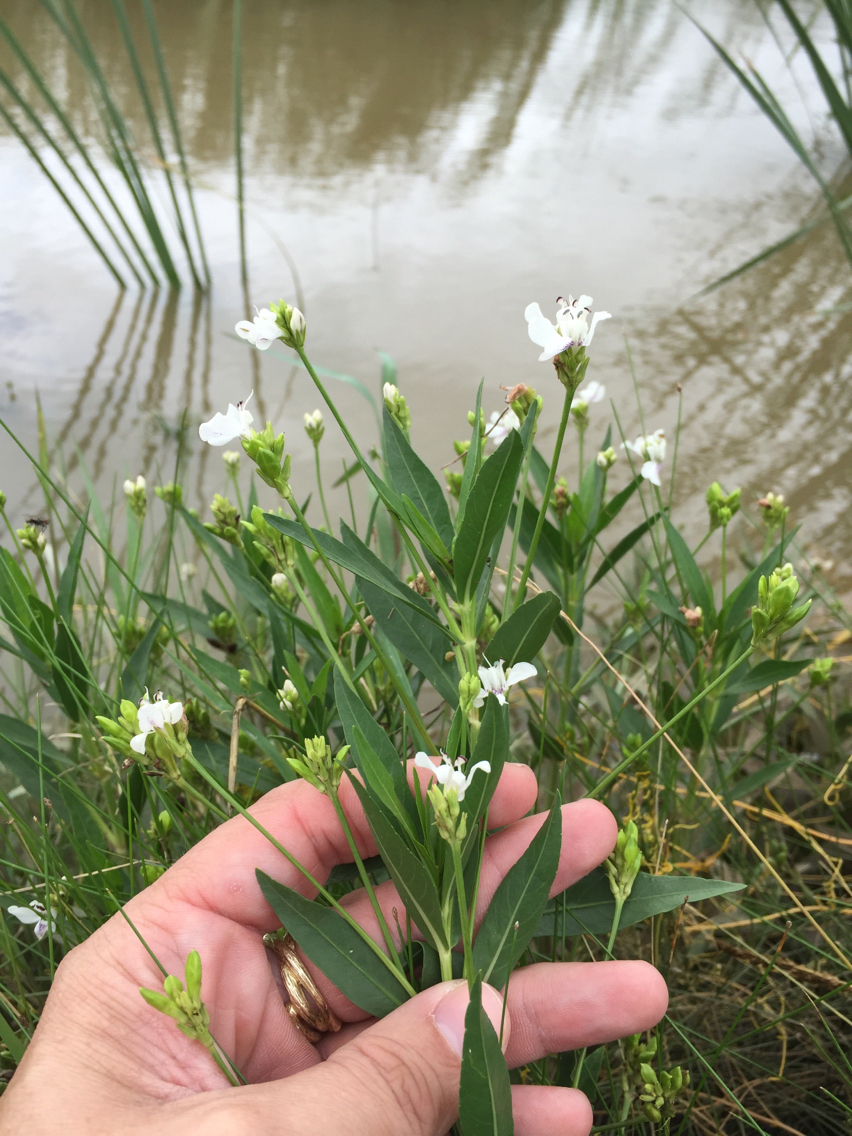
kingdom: Plantae
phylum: Tracheophyta
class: Magnoliopsida
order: Lamiales
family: Acanthaceae
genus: Dianthera
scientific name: Dianthera americana
